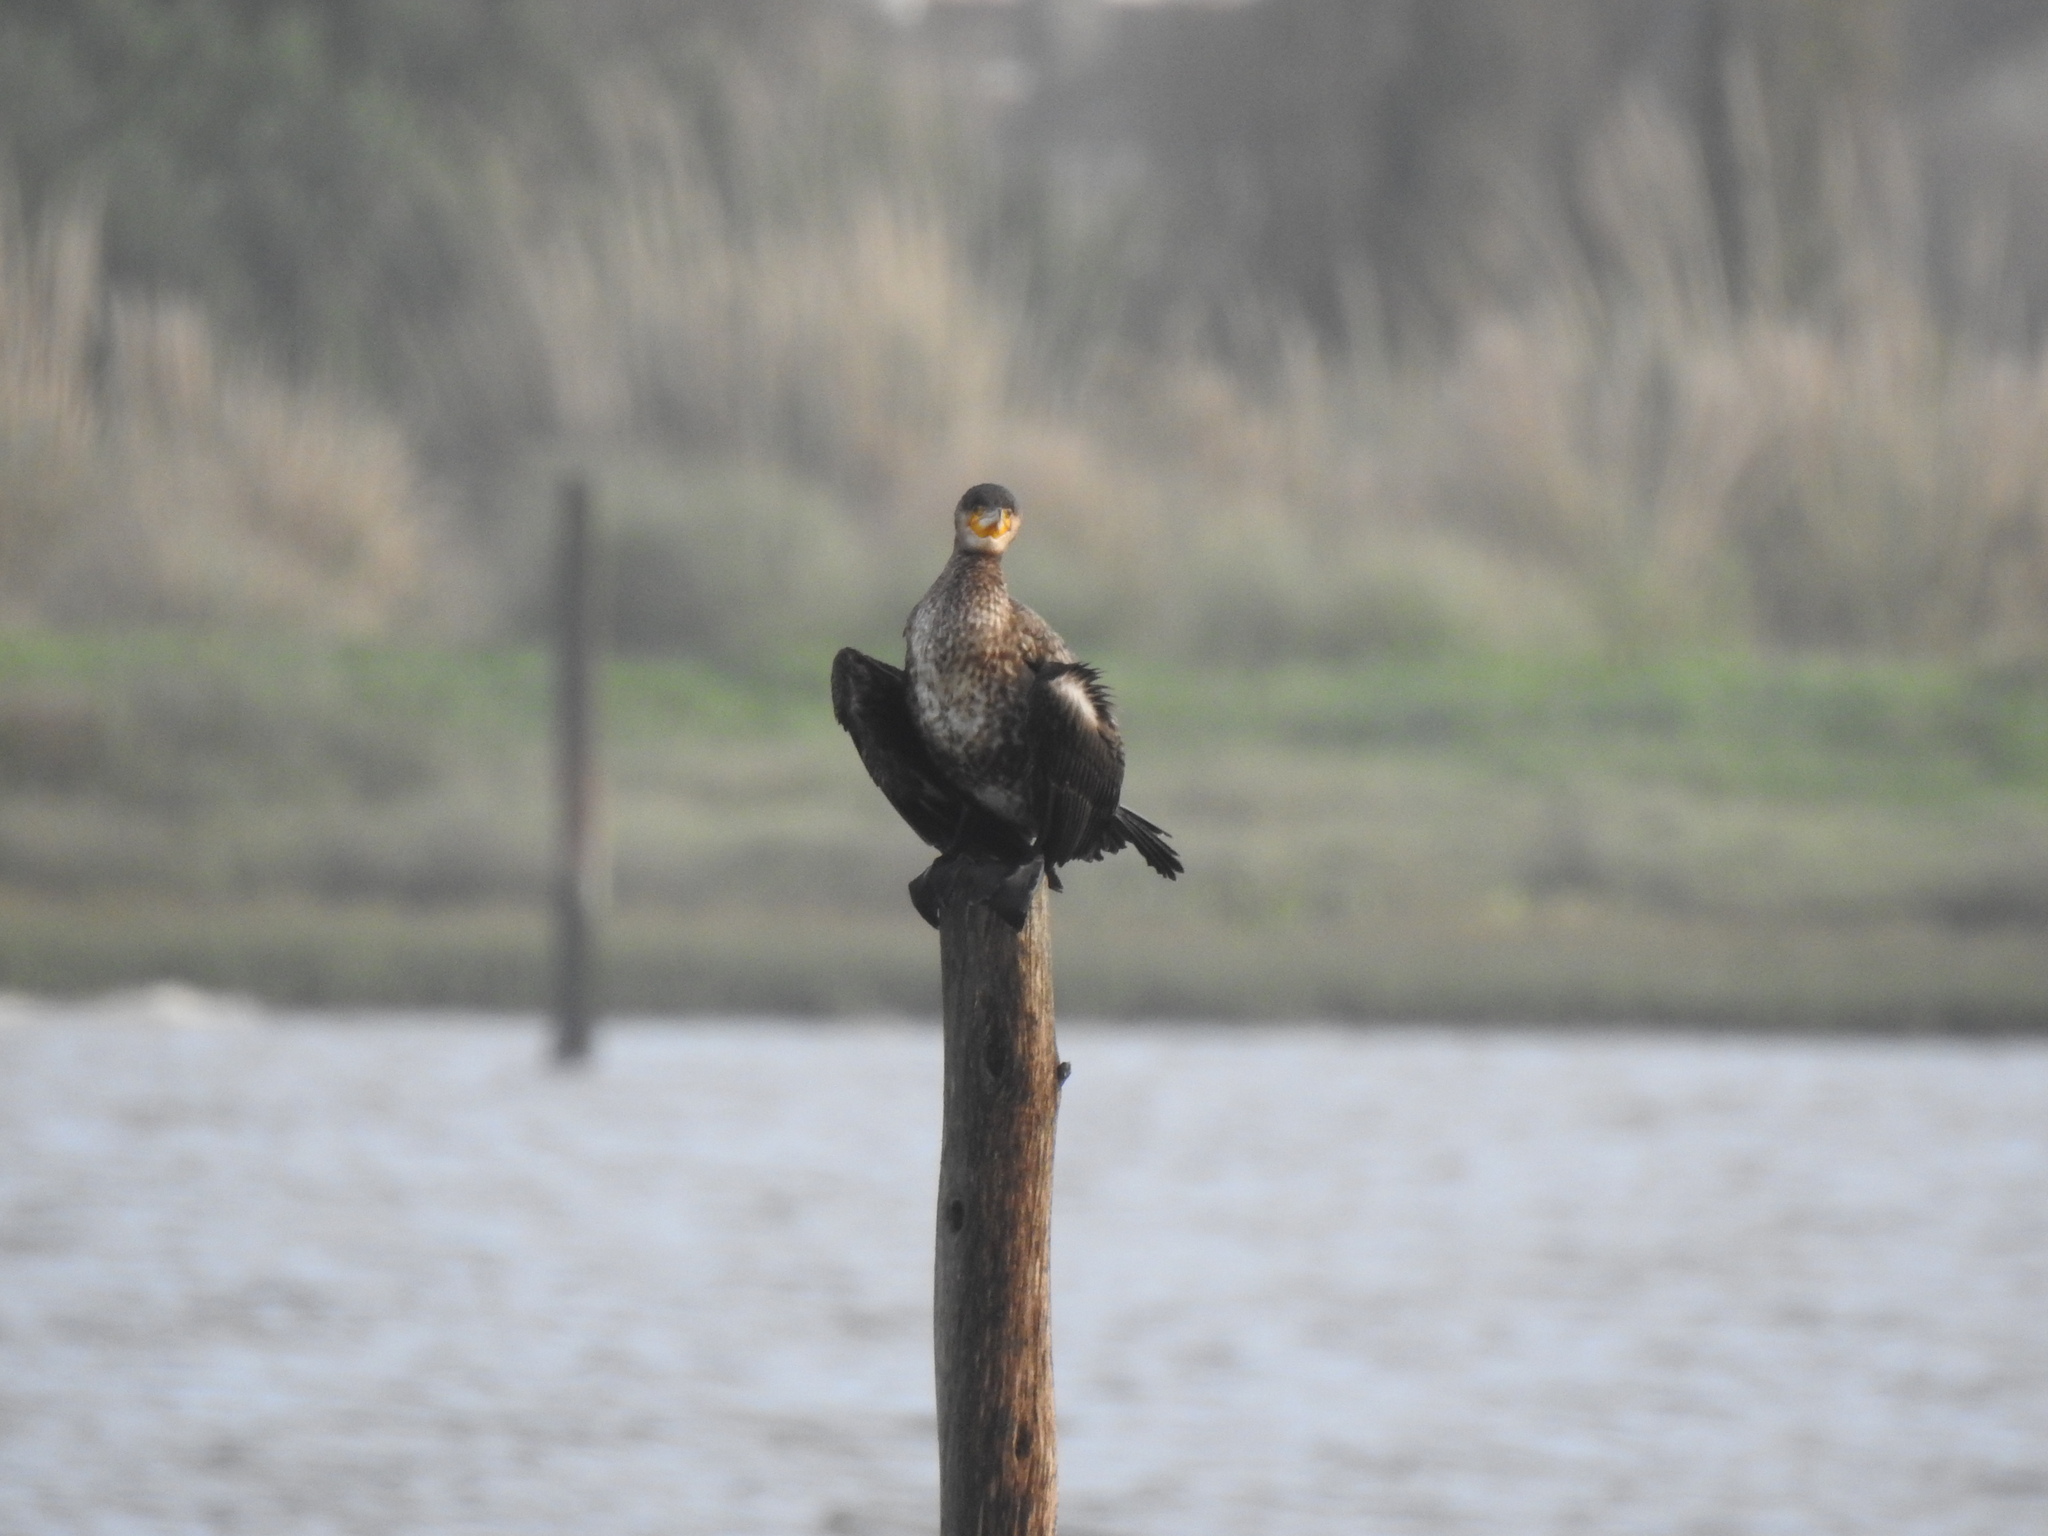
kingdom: Animalia
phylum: Chordata
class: Aves
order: Suliformes
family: Phalacrocoracidae
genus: Phalacrocorax
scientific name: Phalacrocorax carbo
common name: Great cormorant
